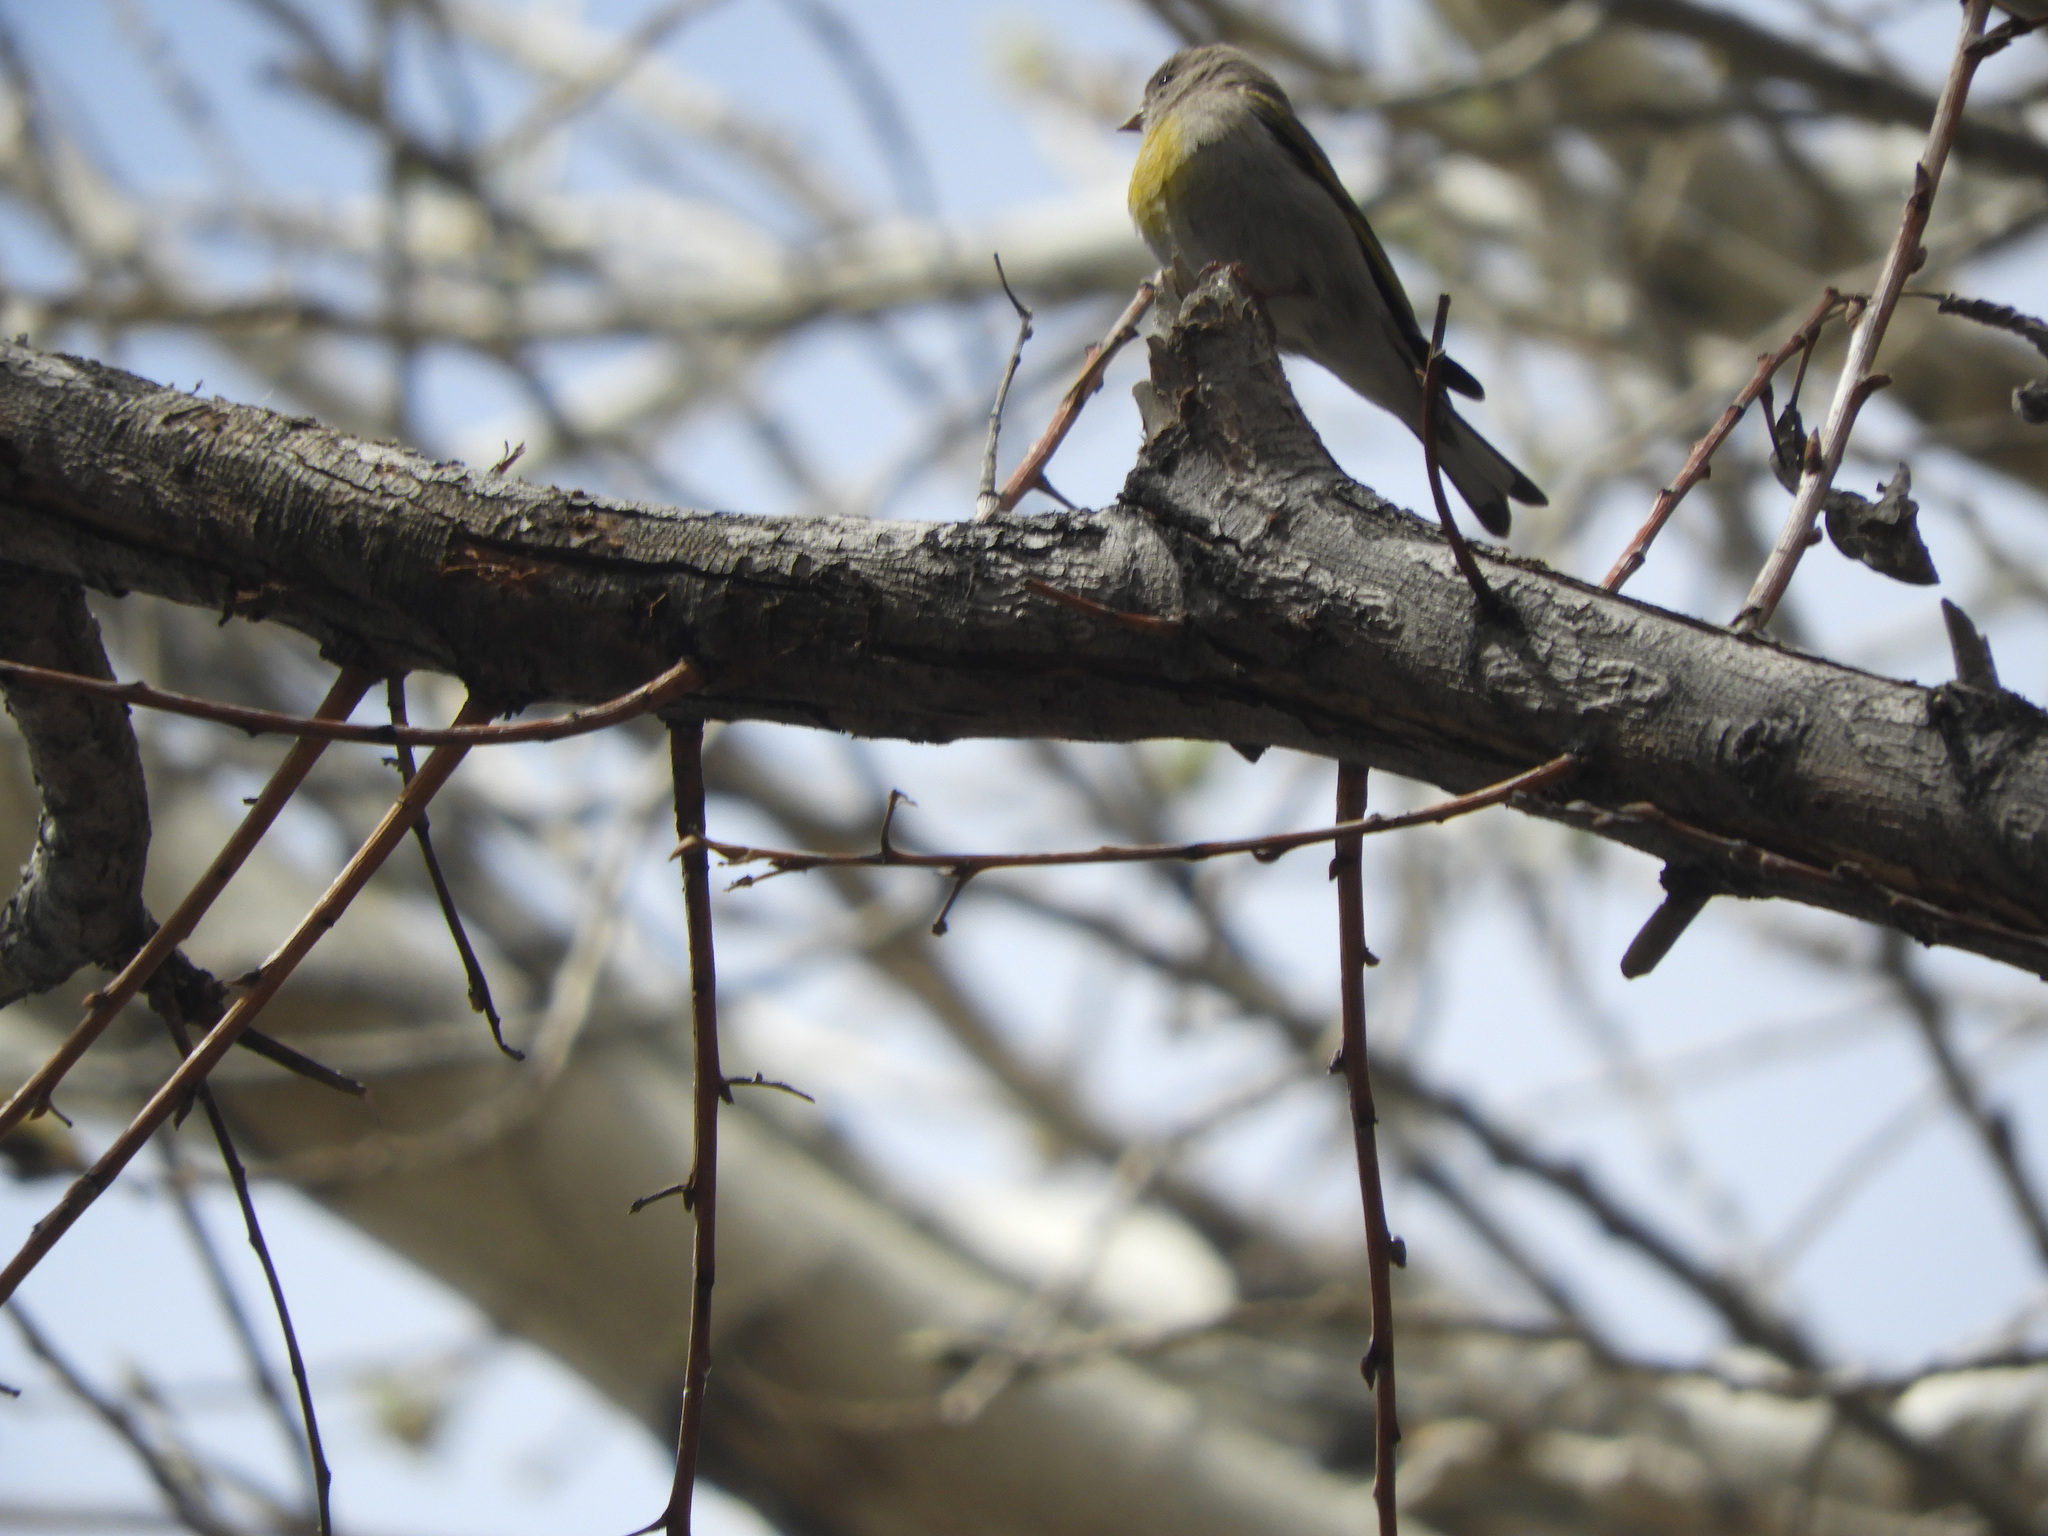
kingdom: Animalia
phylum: Chordata
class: Aves
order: Passeriformes
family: Fringillidae
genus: Spinus
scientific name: Spinus lawrencei
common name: Lawrence's goldfinch
